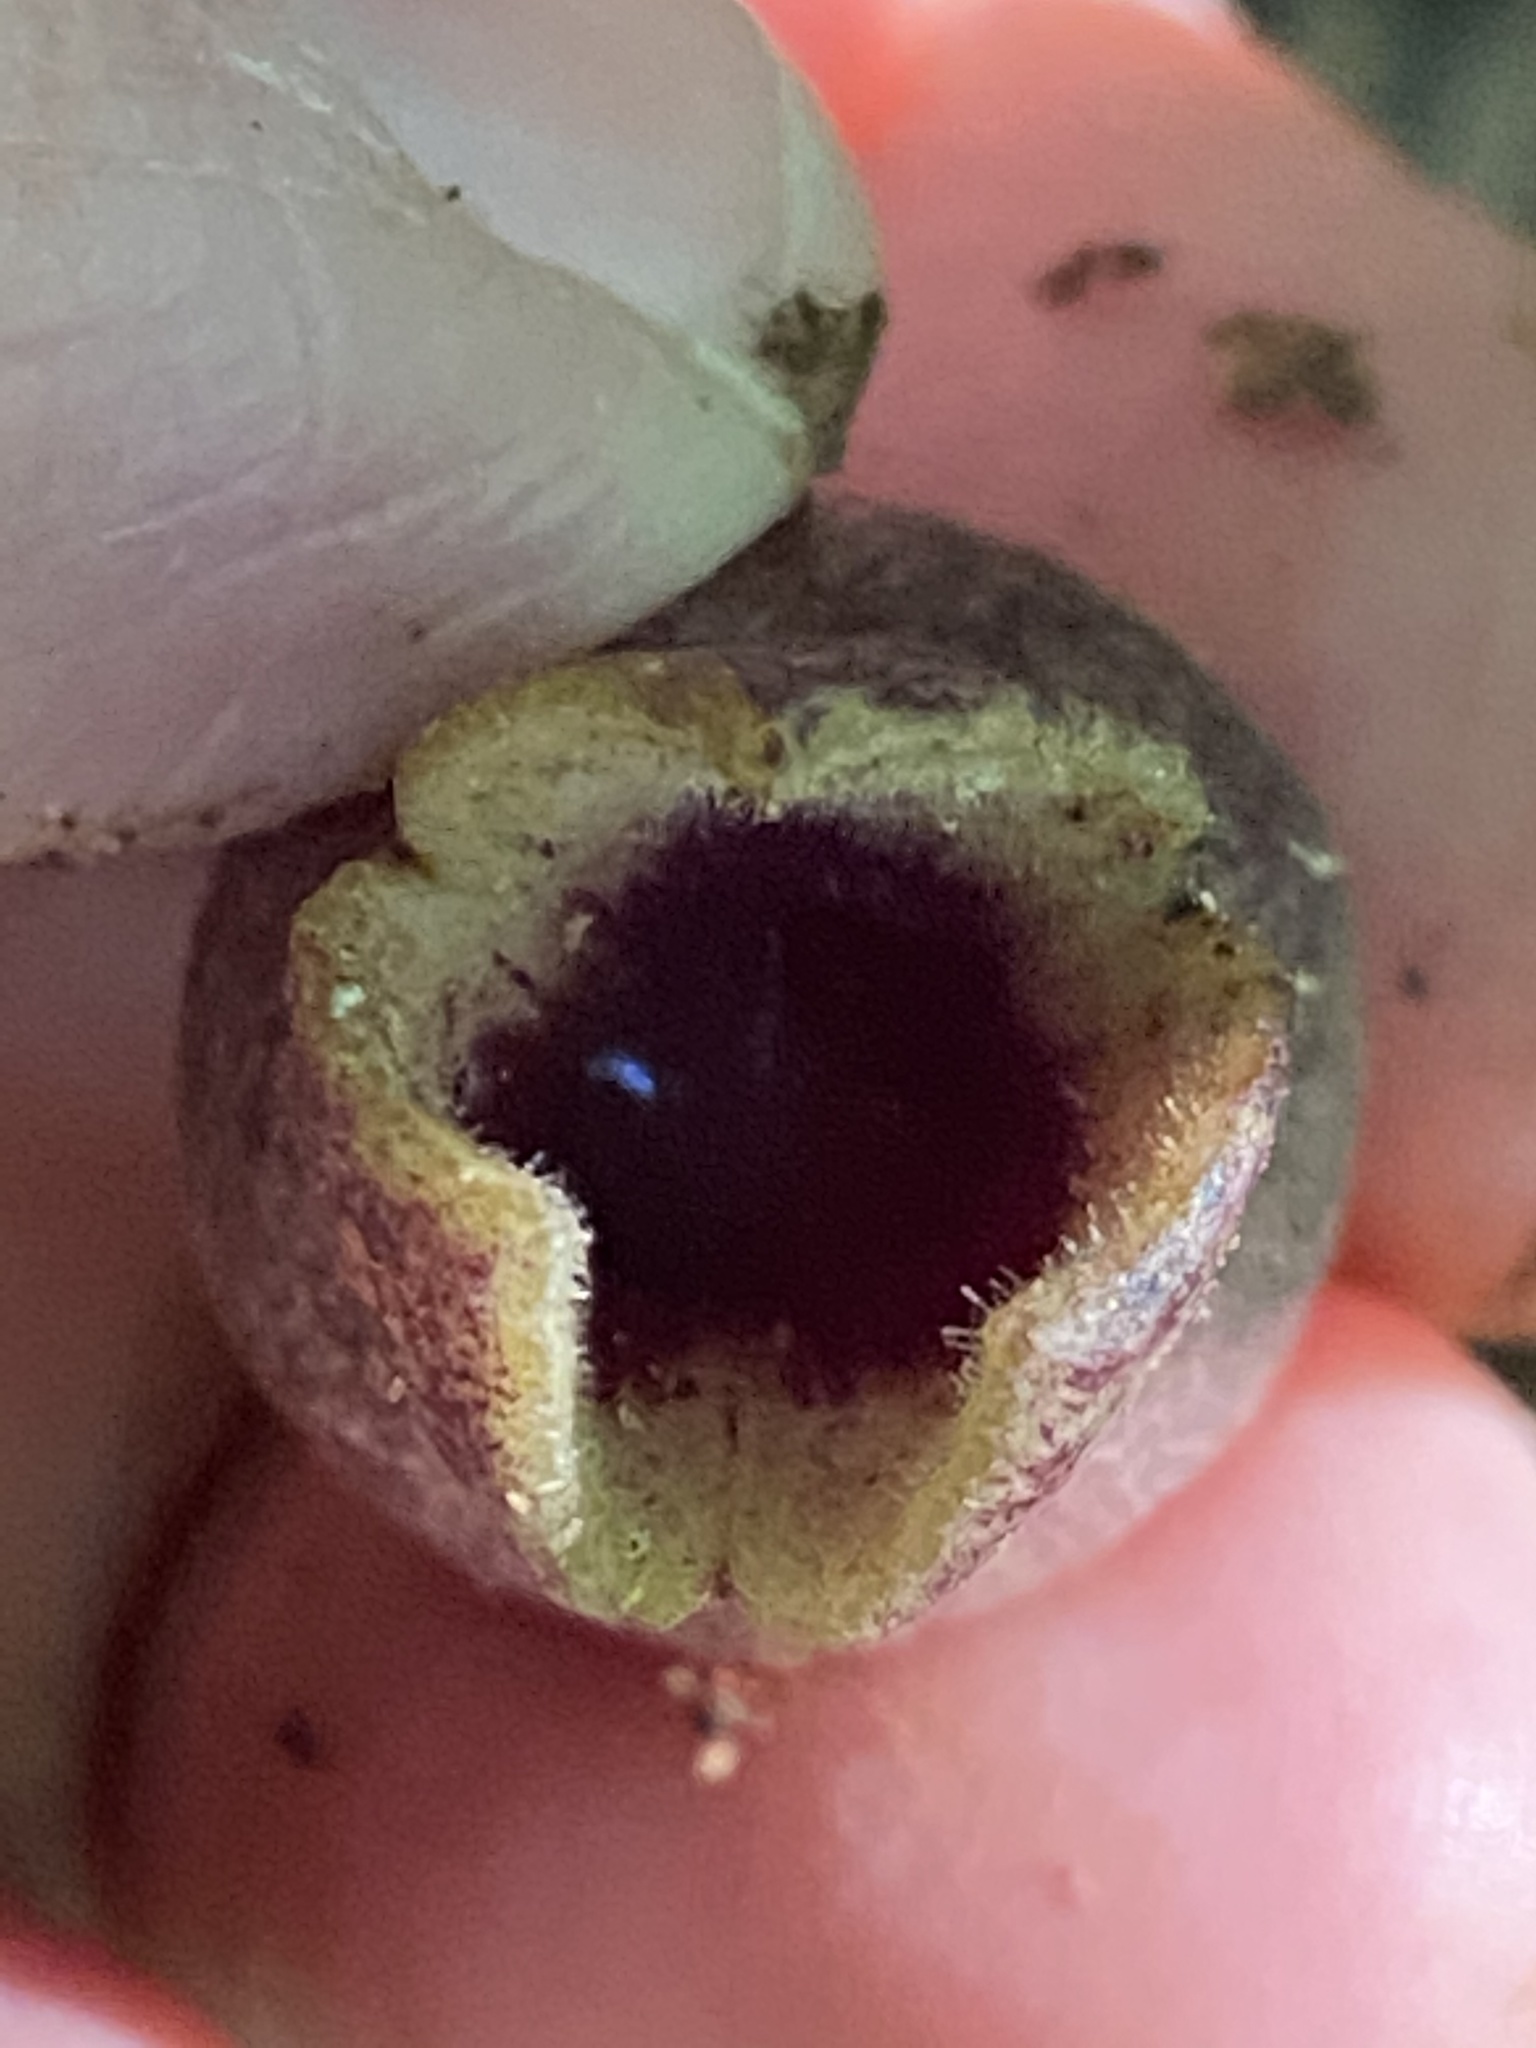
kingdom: Plantae
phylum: Tracheophyta
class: Magnoliopsida
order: Piperales
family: Aristolochiaceae
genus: Hexastylis
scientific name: Hexastylis arifolia
